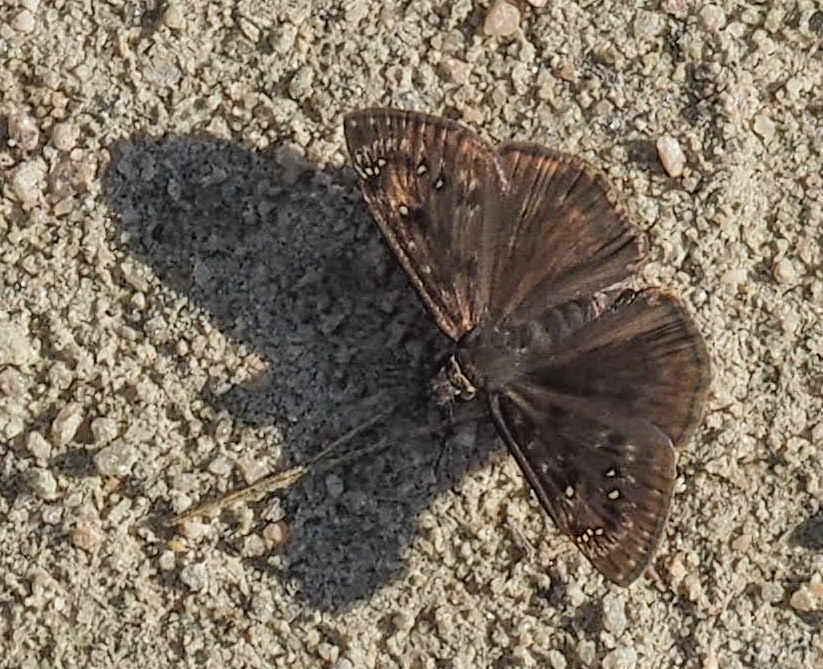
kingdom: Animalia
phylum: Arthropoda
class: Insecta
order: Lepidoptera
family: Hesperiidae
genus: Erynnis
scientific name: Erynnis horatius
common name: Horace's duskywing
